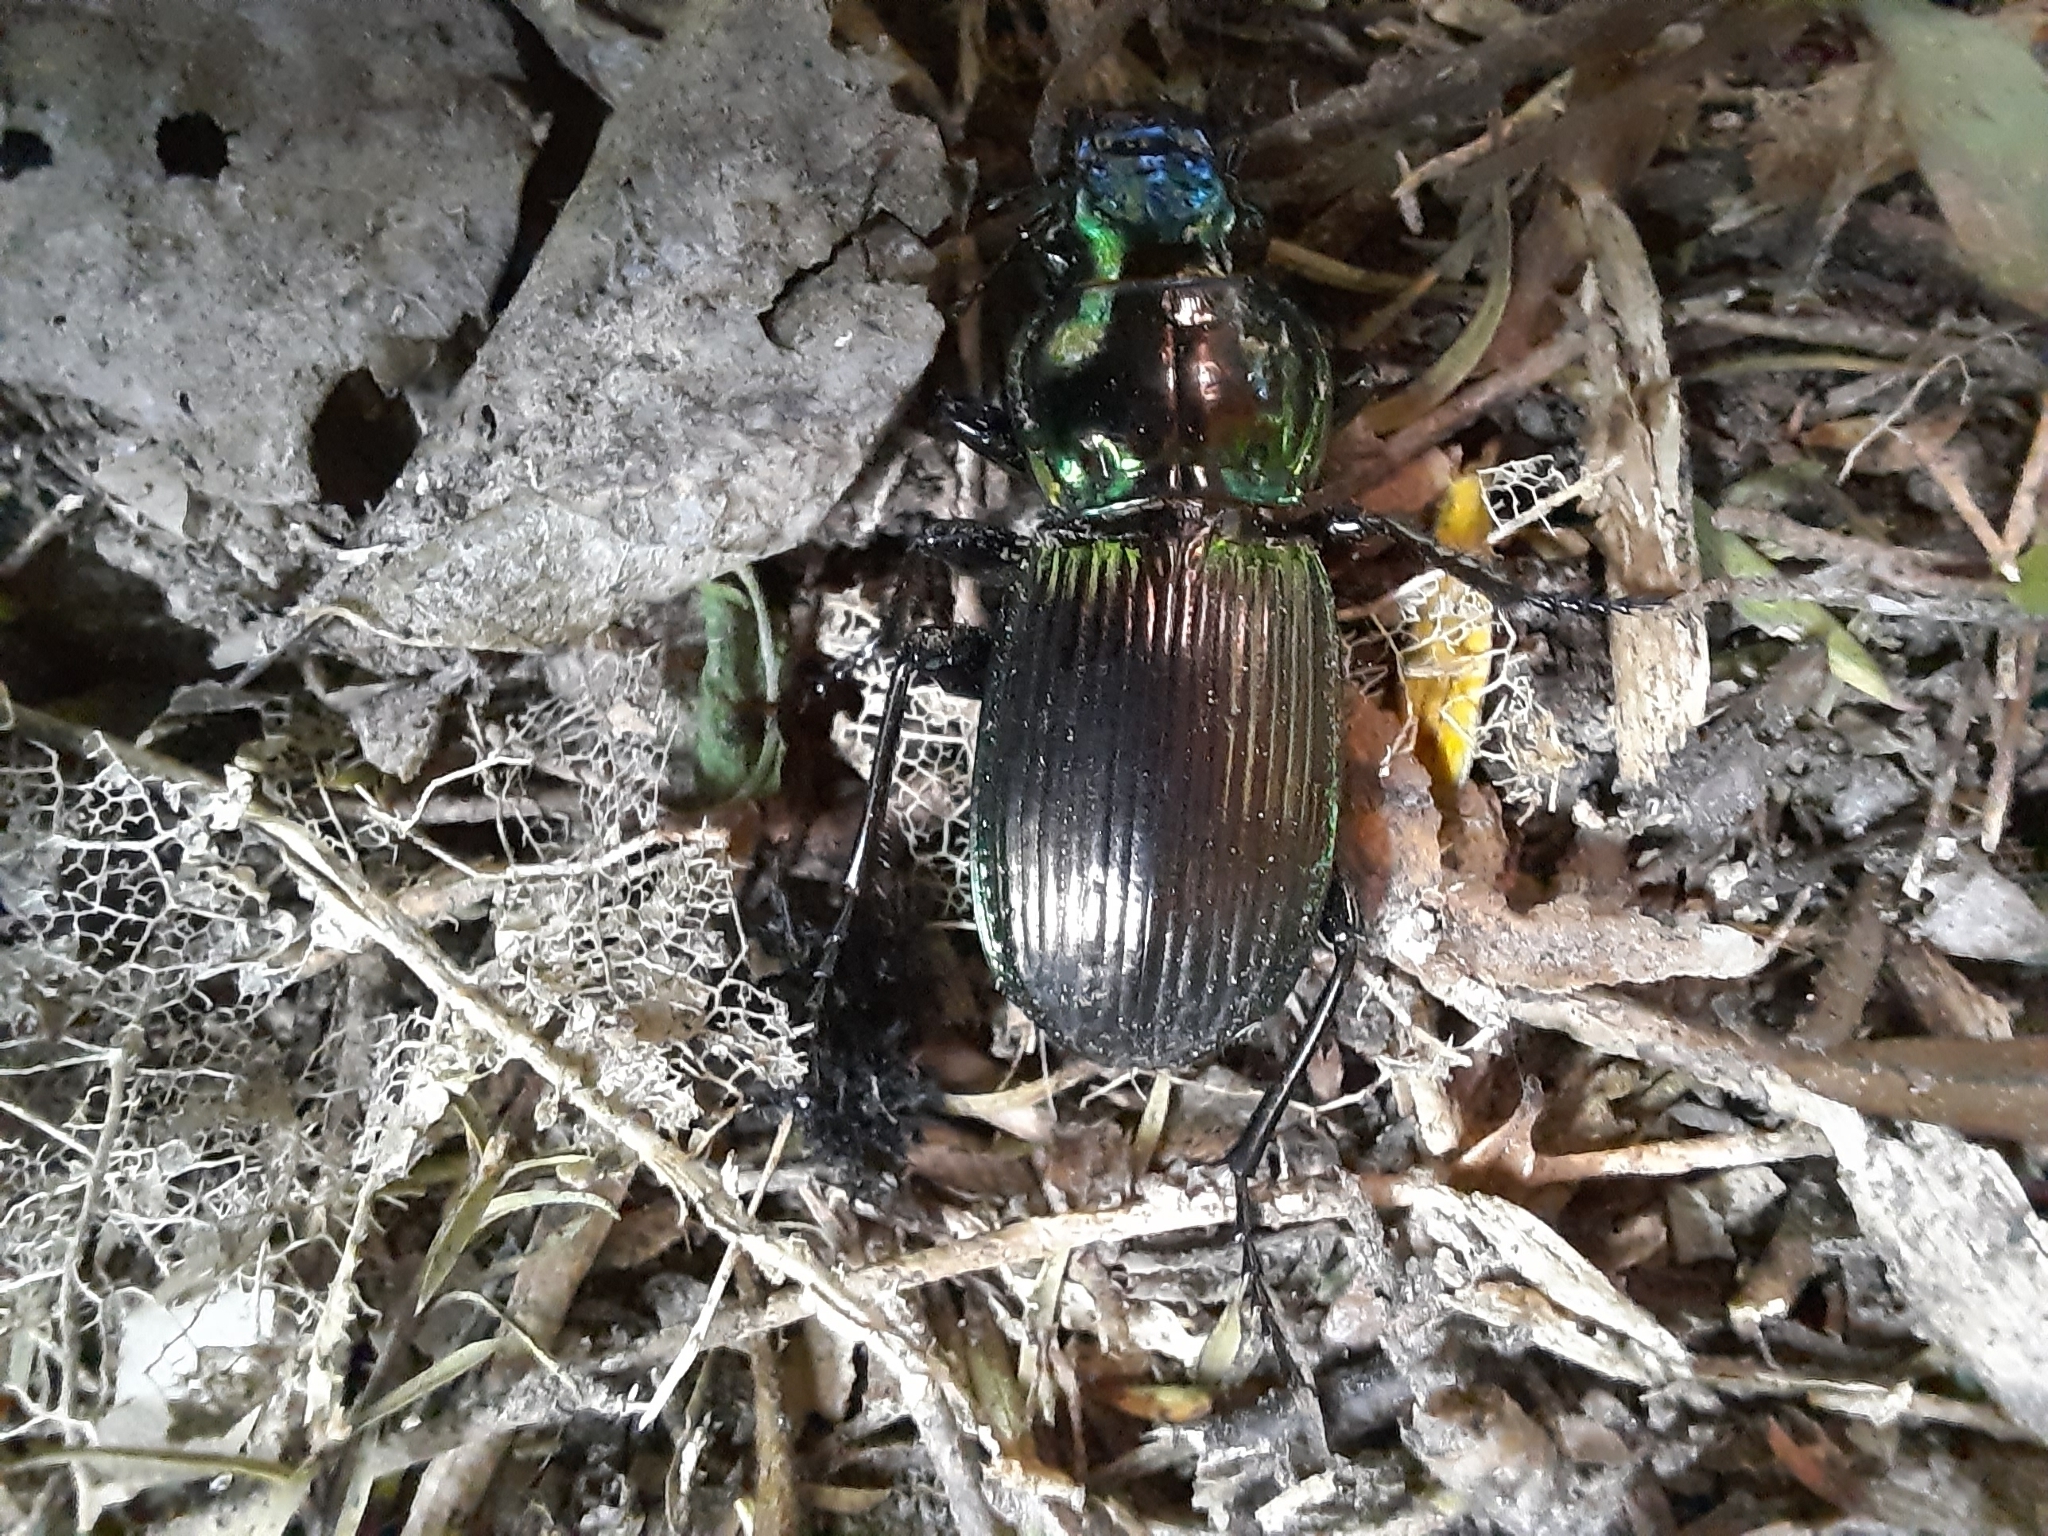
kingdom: Animalia
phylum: Arthropoda
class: Insecta
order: Coleoptera
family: Carabidae
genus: Megadromus
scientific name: Megadromus antarcticus
